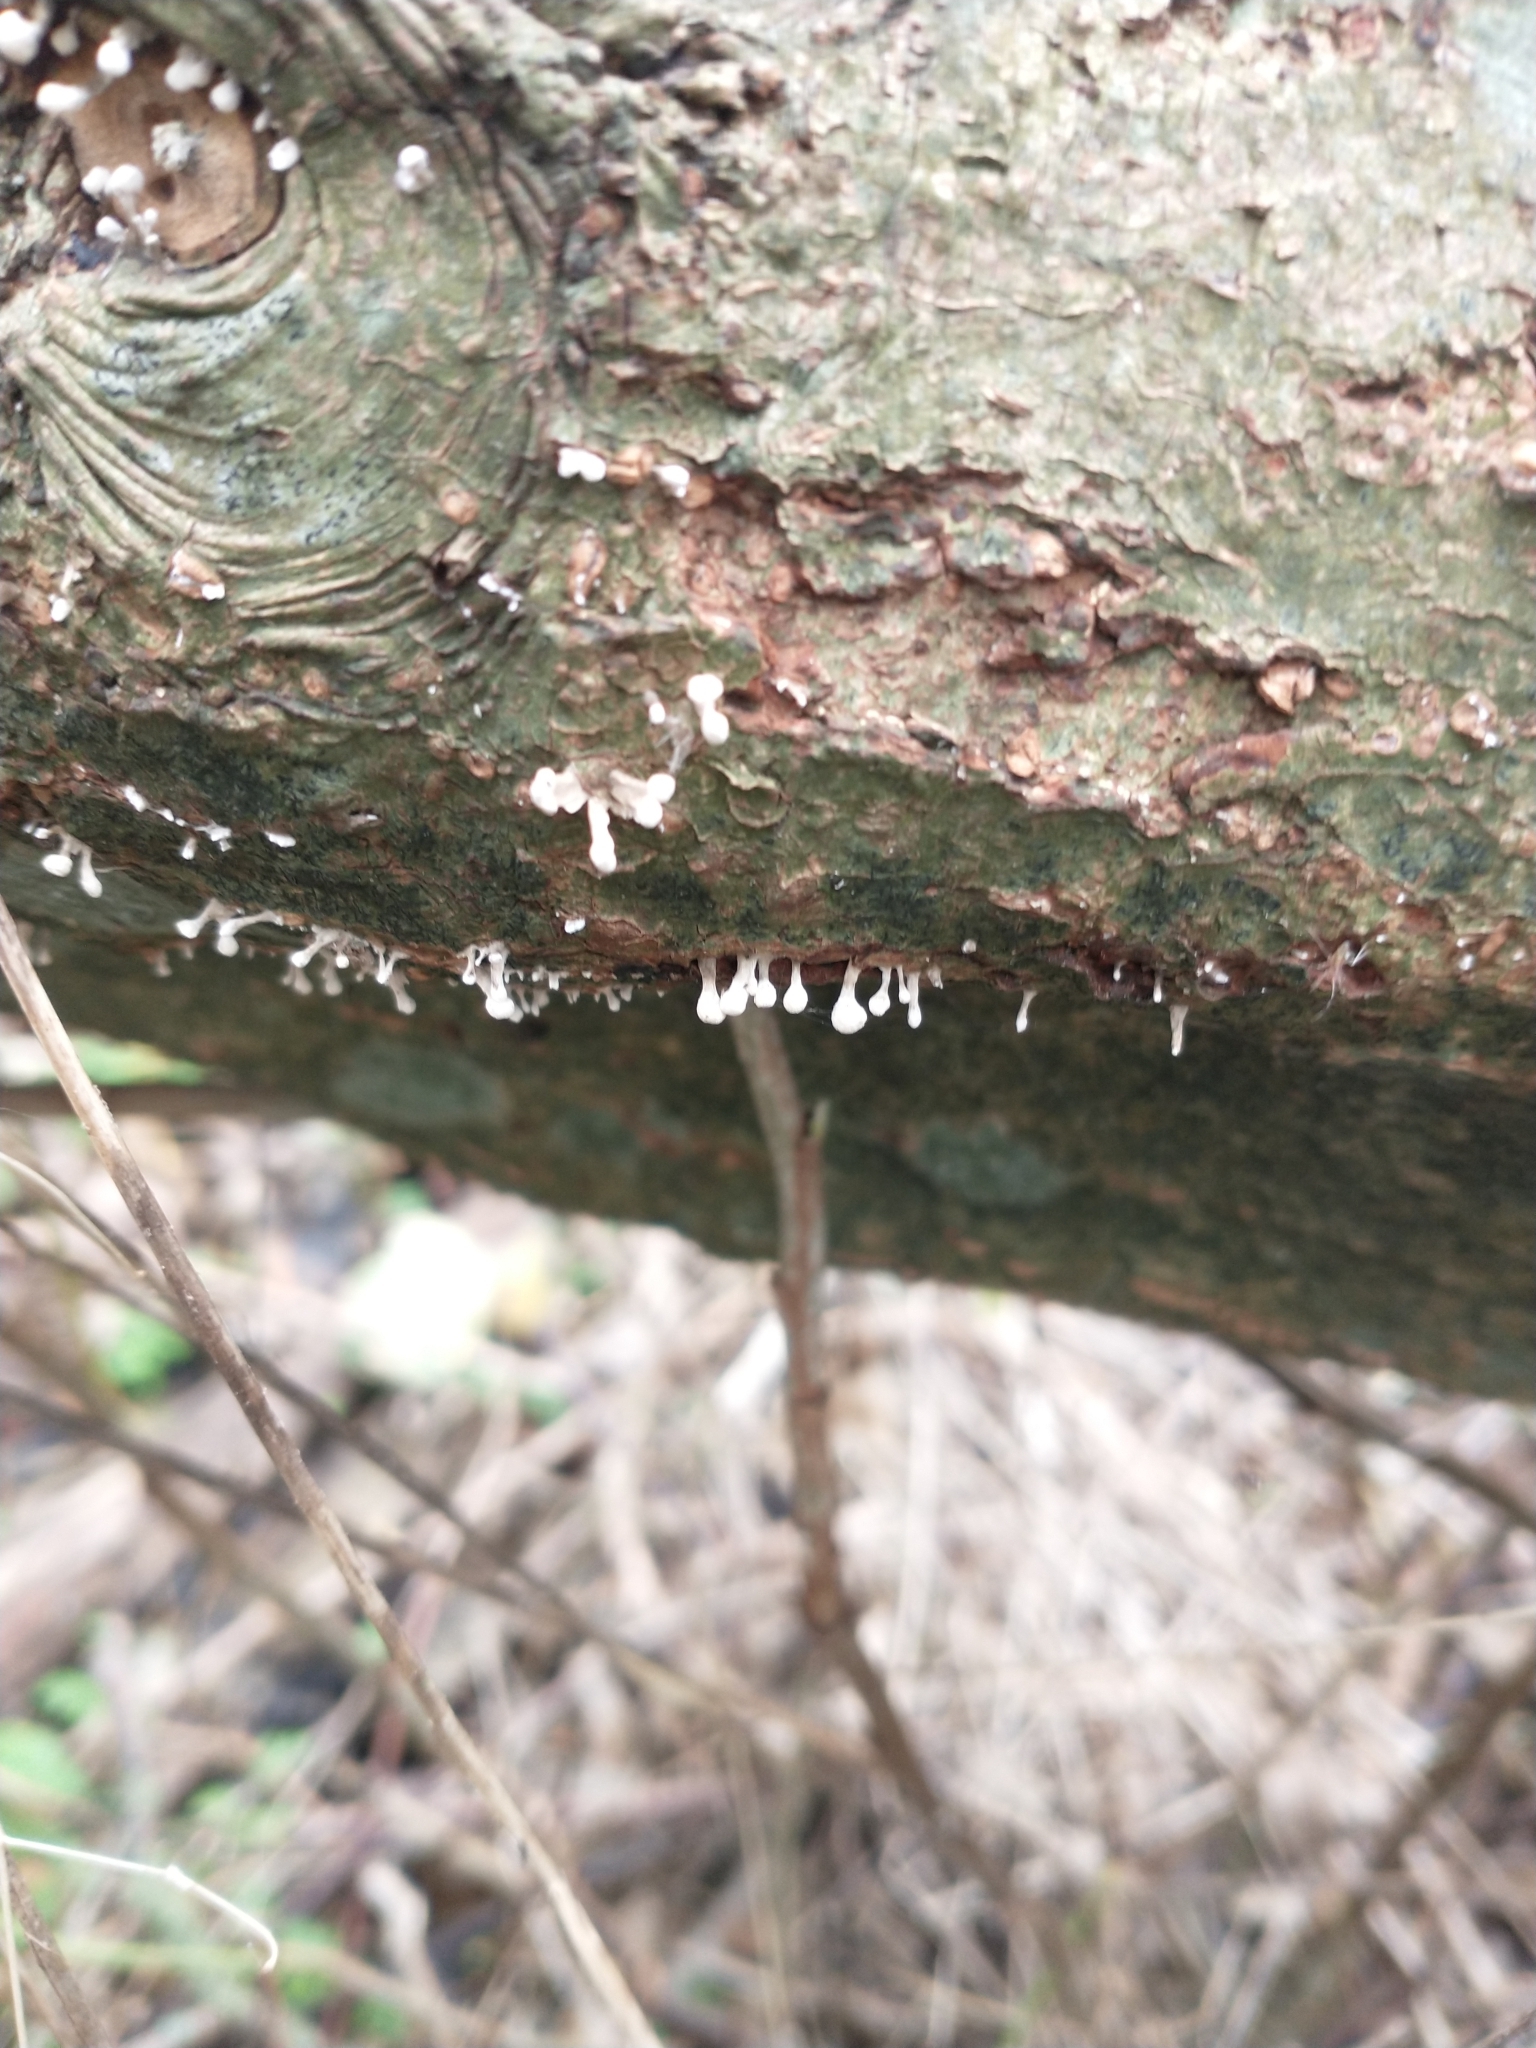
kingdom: Fungi
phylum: Basidiomycota
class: Atractiellomycetes
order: Atractiellales
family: Phleogenaceae
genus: Phleogena
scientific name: Phleogena faginea
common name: Fenugreek stalkball
